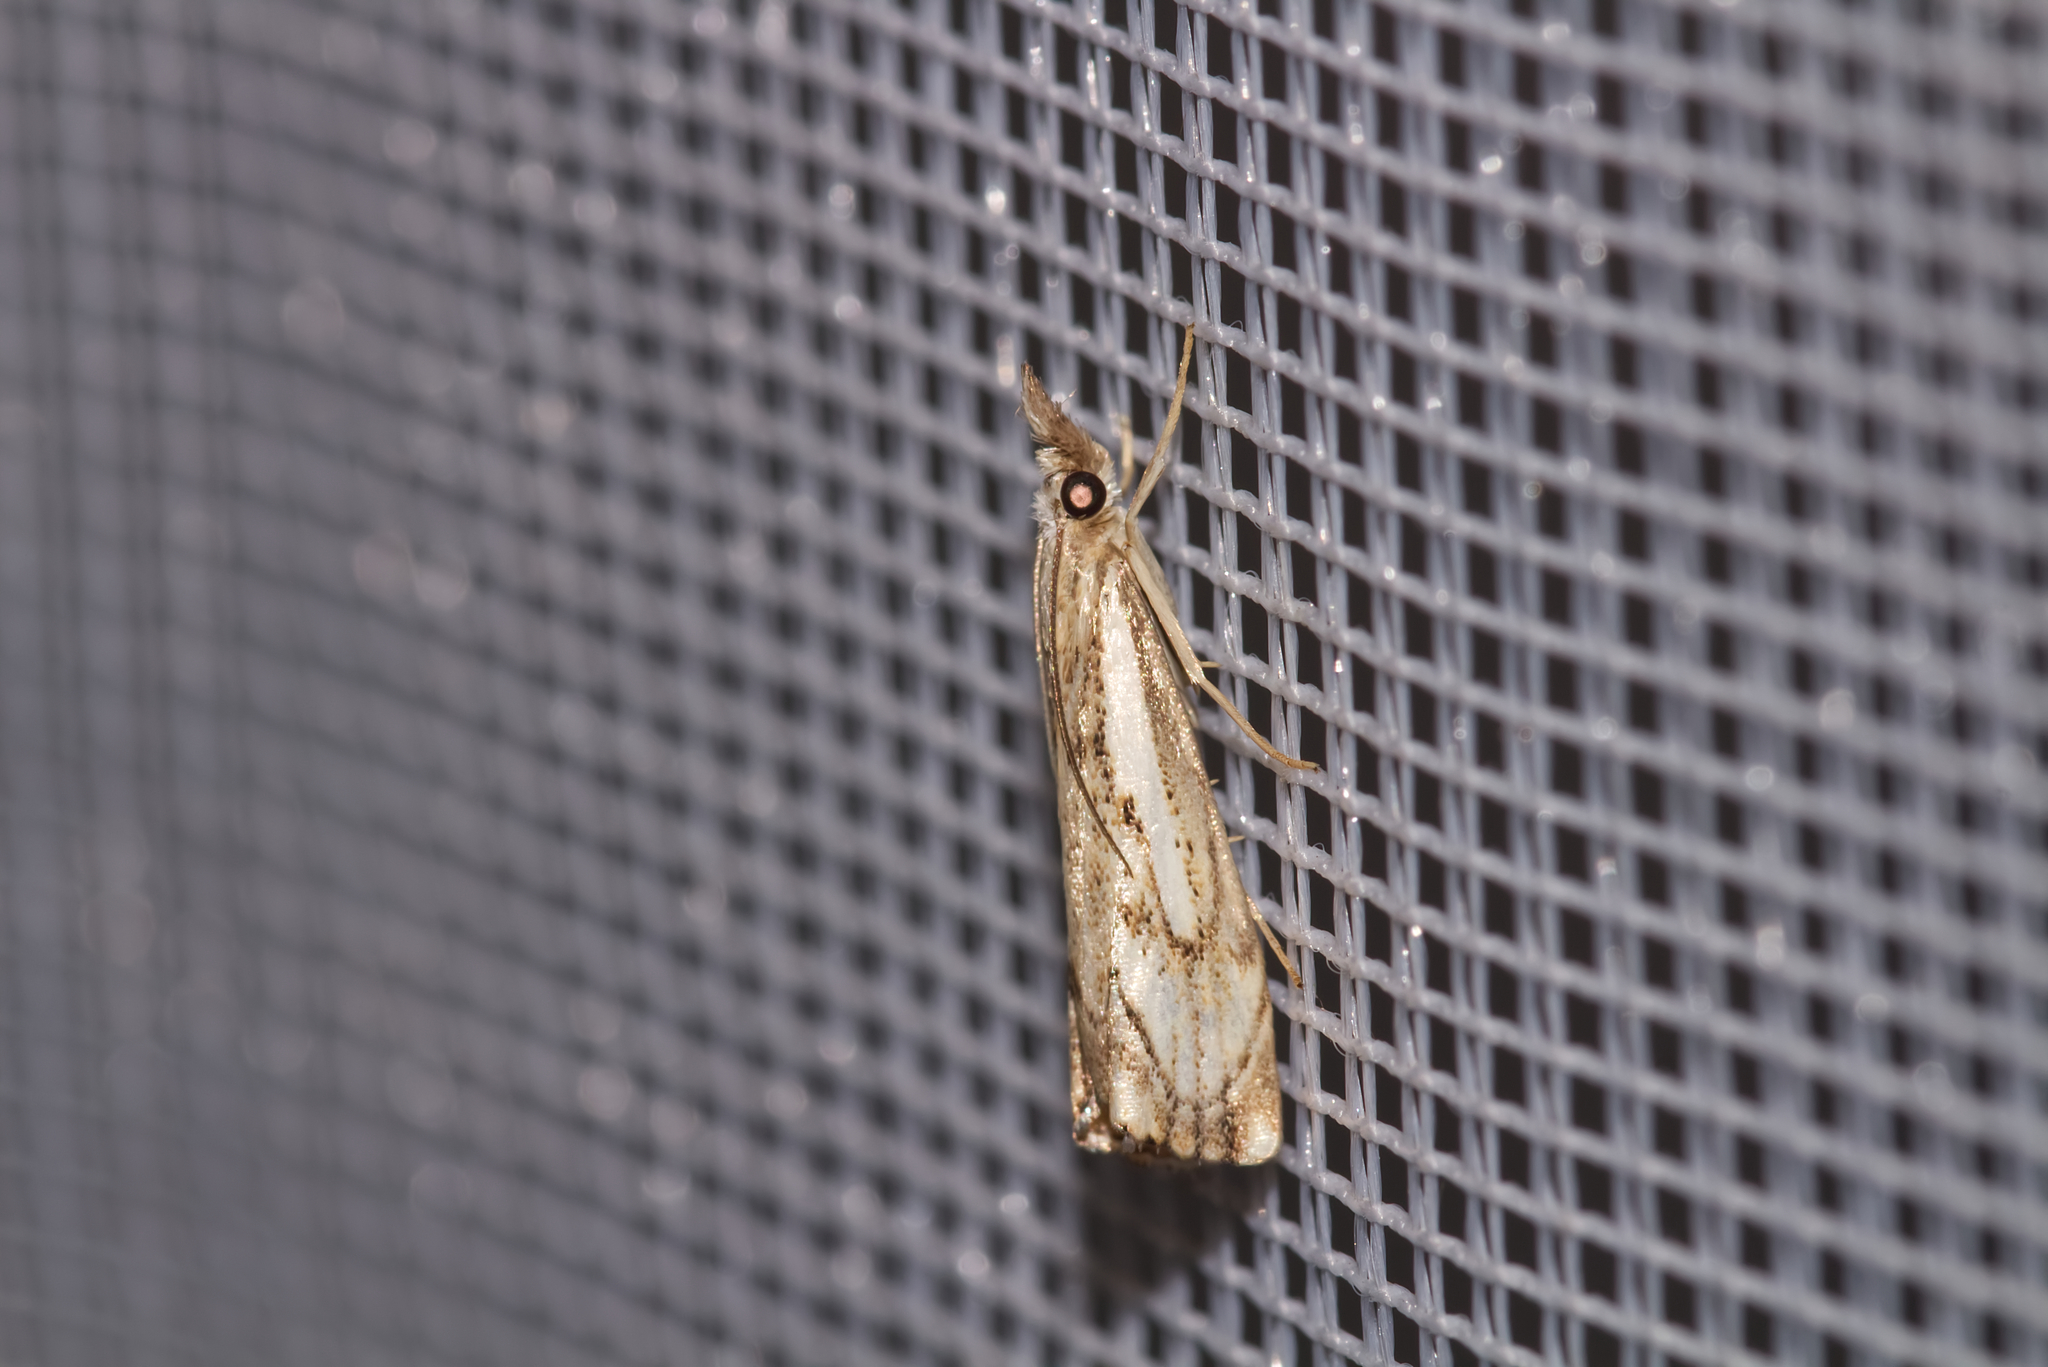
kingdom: Animalia
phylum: Arthropoda
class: Insecta
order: Lepidoptera
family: Crambidae
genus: Catoptria
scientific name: Catoptria falsella
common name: Chequered grass-veneer
